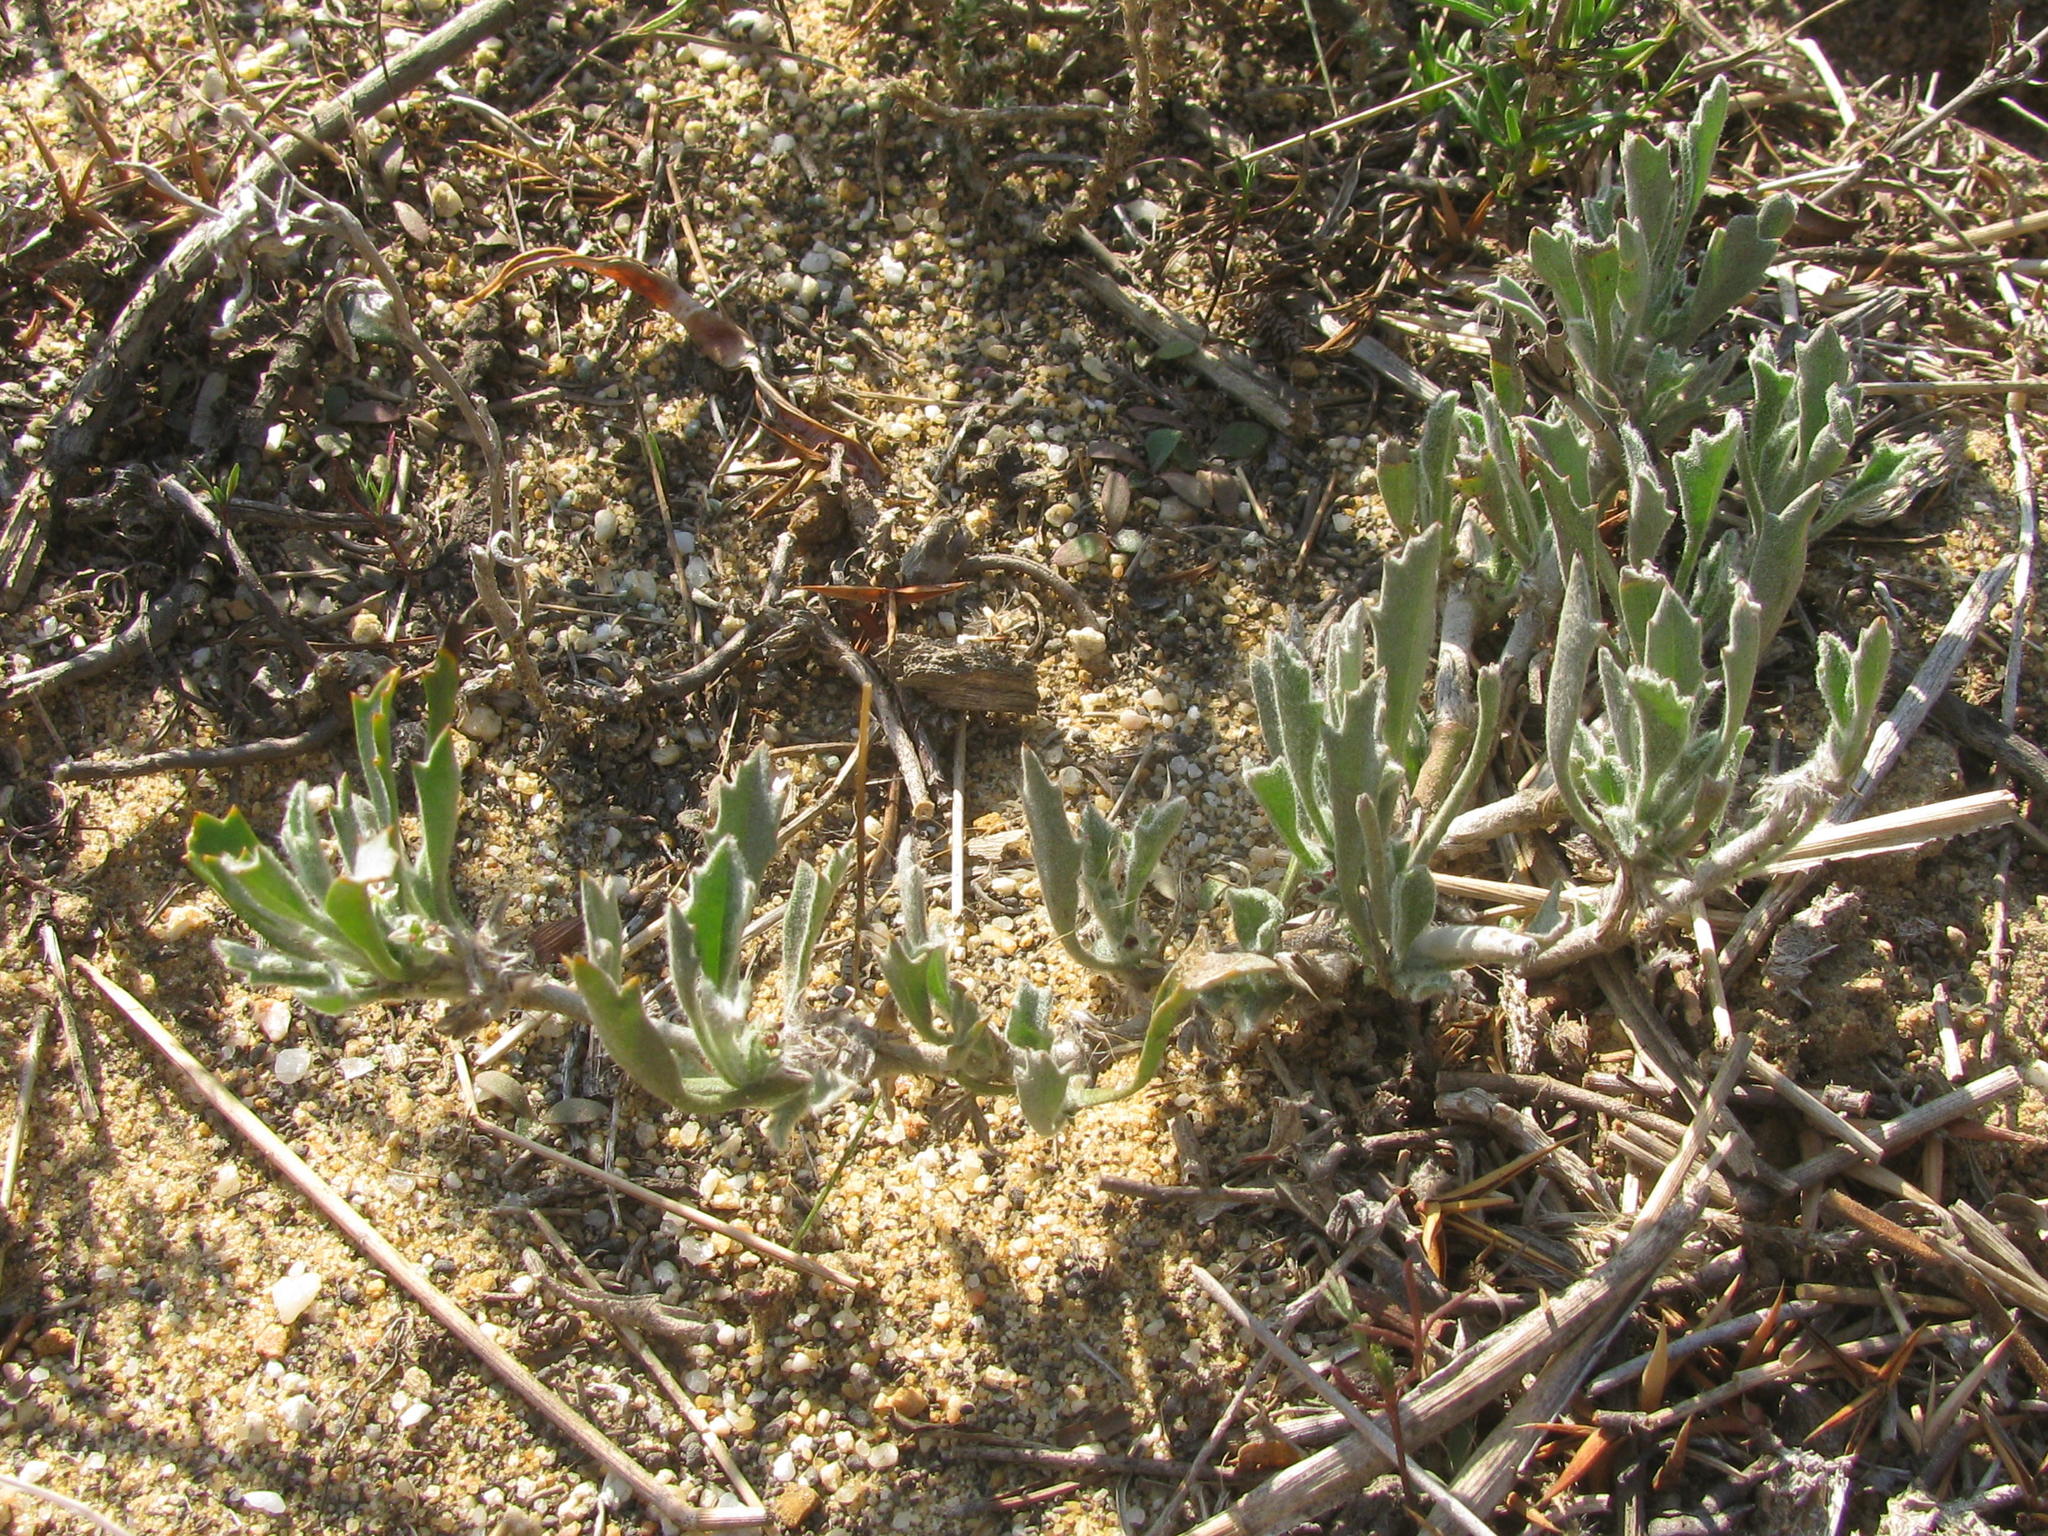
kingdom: Plantae
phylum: Tracheophyta
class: Magnoliopsida
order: Apiales
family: Apiaceae
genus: Centella
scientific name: Centella tridentata
